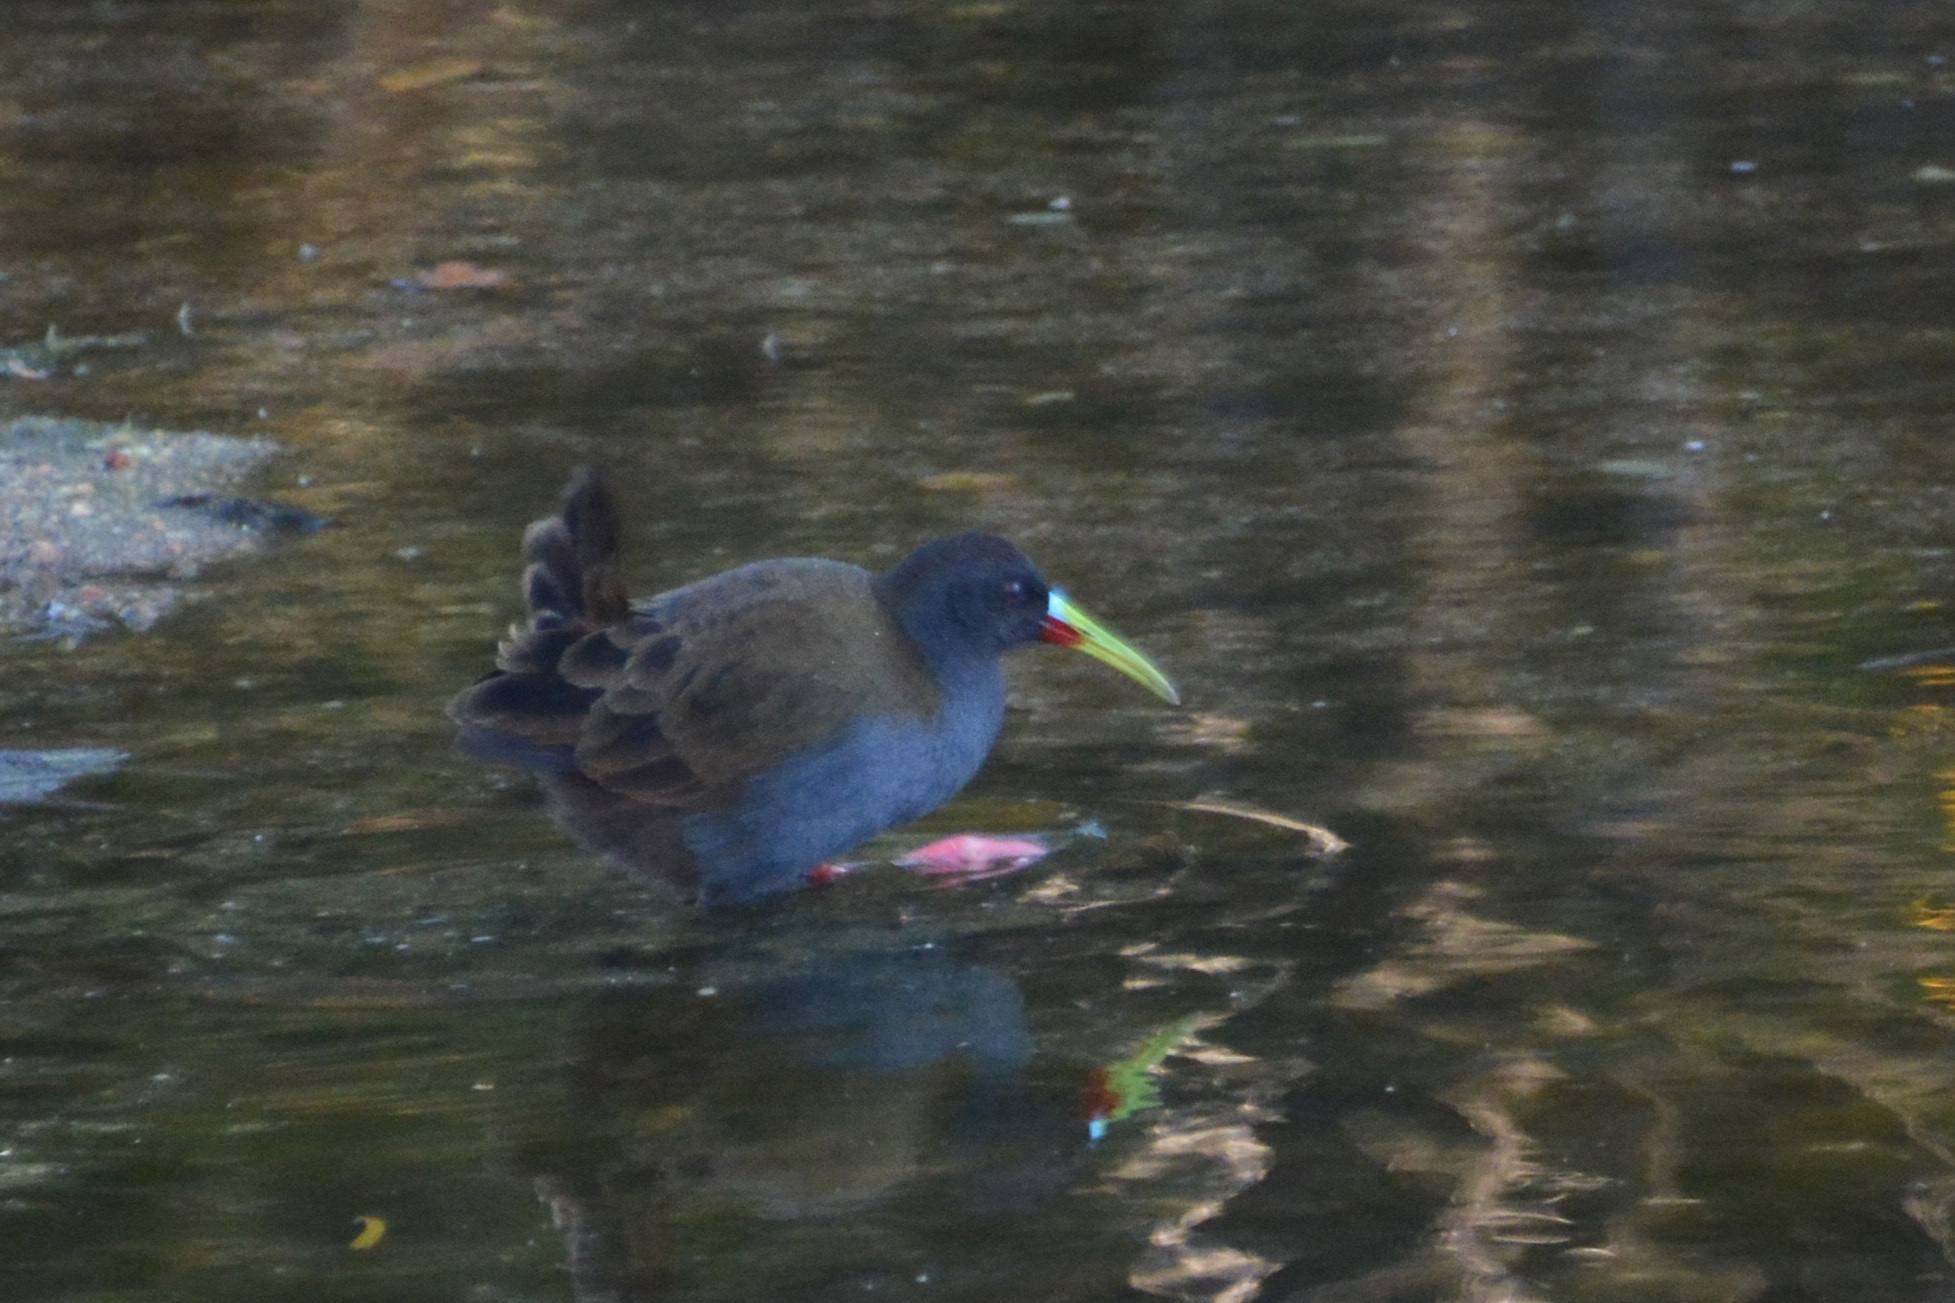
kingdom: Animalia
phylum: Chordata
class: Aves
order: Gruiformes
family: Rallidae
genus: Pardirallus
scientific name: Pardirallus sanguinolentus
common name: Plumbeous rail
